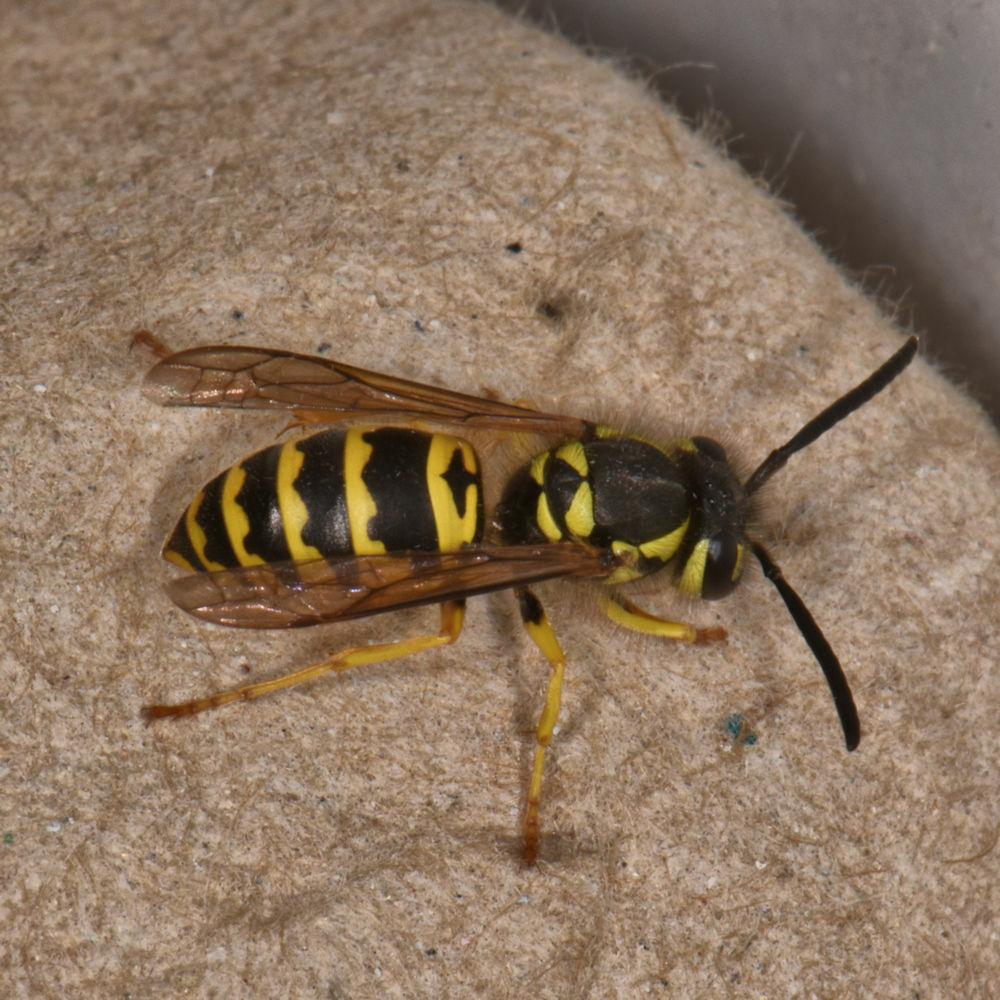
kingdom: Animalia
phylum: Arthropoda
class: Insecta
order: Hymenoptera
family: Vespidae
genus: Vespula
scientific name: Vespula maculifrons
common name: Eastern yellowjacket
